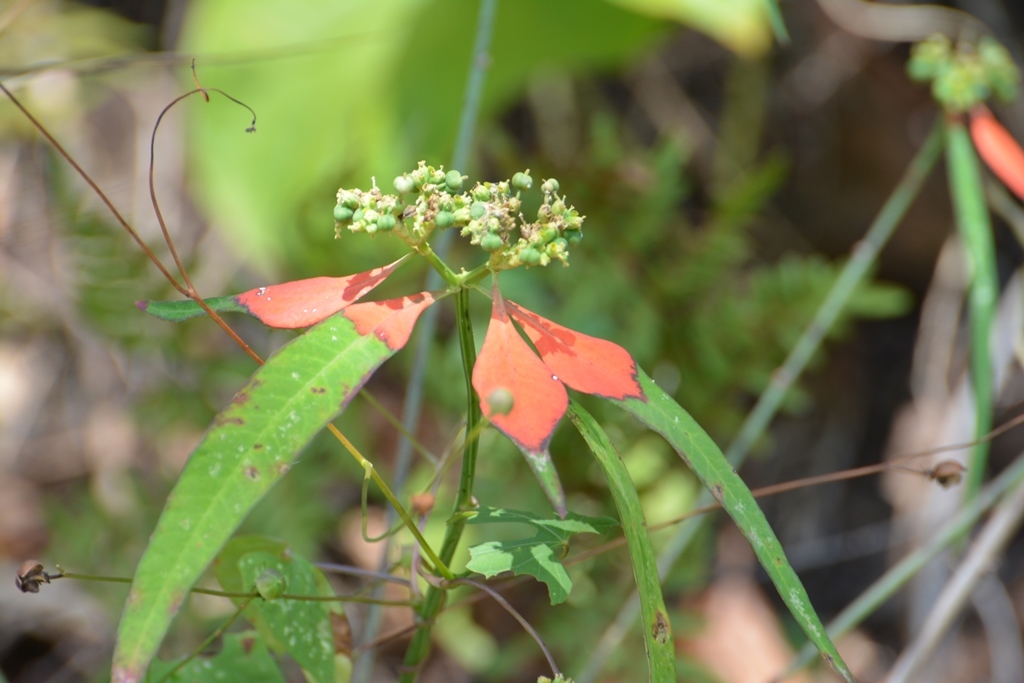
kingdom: Plantae
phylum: Tracheophyta
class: Magnoliopsida
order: Malpighiales
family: Euphorbiaceae
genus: Euphorbia
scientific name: Euphorbia heterophylla
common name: Mexican fireplant
